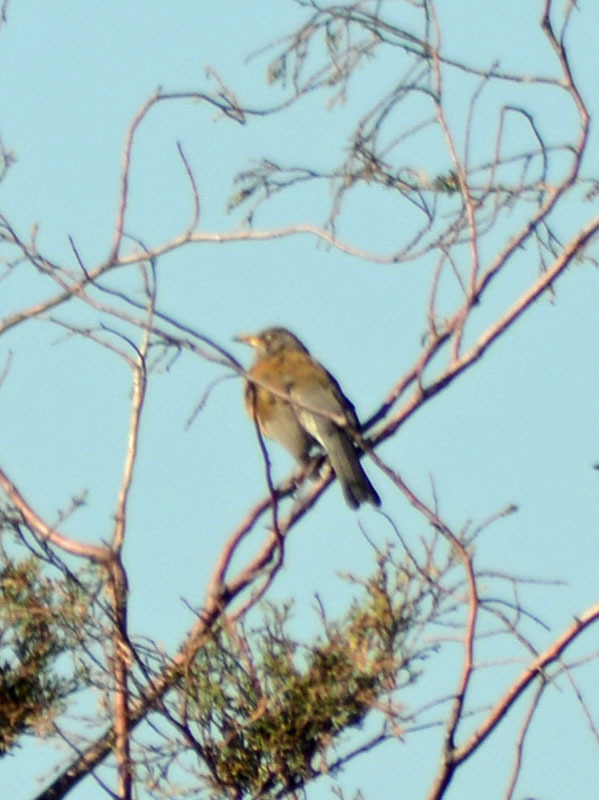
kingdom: Animalia
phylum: Chordata
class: Aves
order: Passeriformes
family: Turdidae
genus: Turdus
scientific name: Turdus rufopalliatus
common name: Rufous-backed robin
